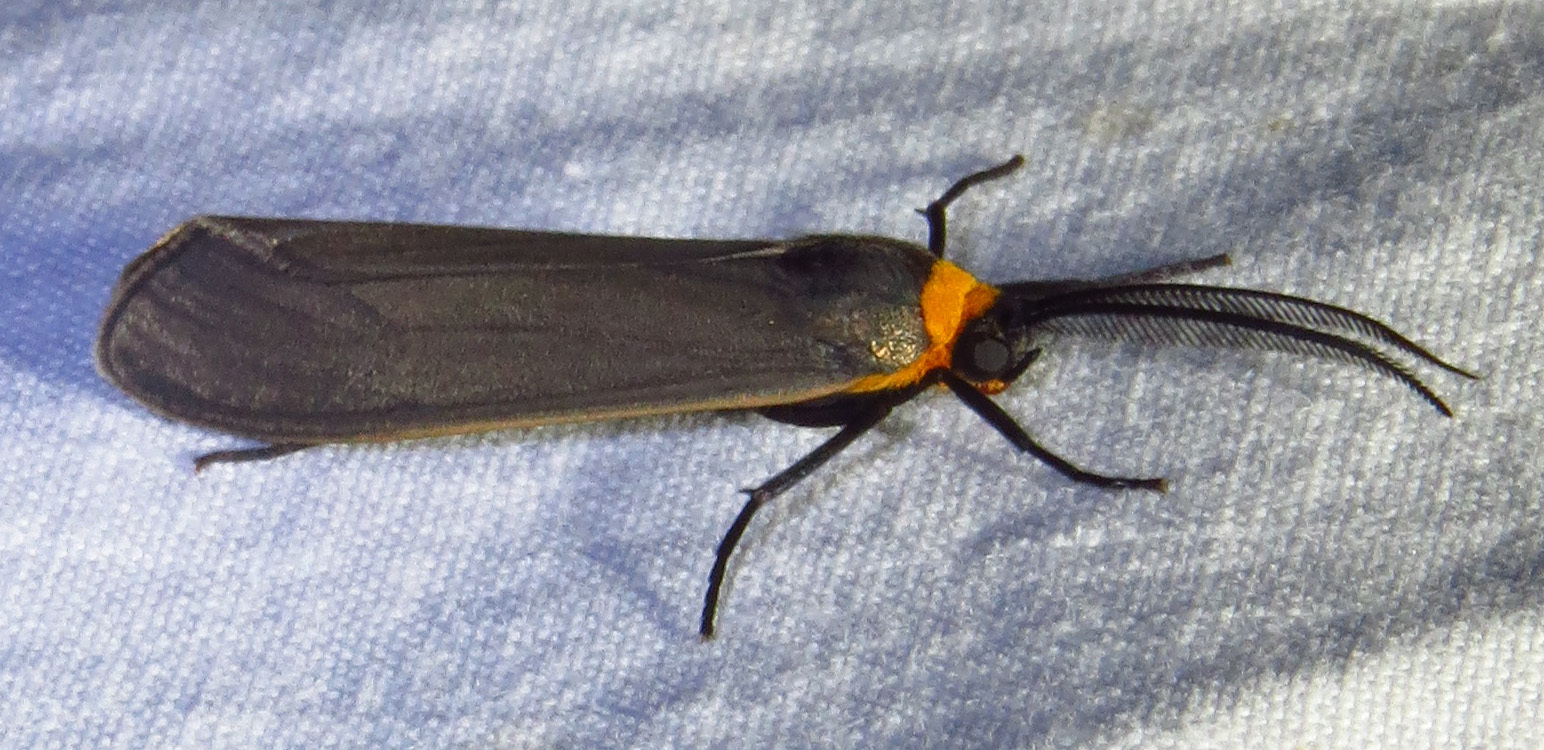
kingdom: Animalia
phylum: Arthropoda
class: Insecta
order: Lepidoptera
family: Erebidae
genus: Cisseps
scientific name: Cisseps fulvicollis
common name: Yellow-collared scape moth
